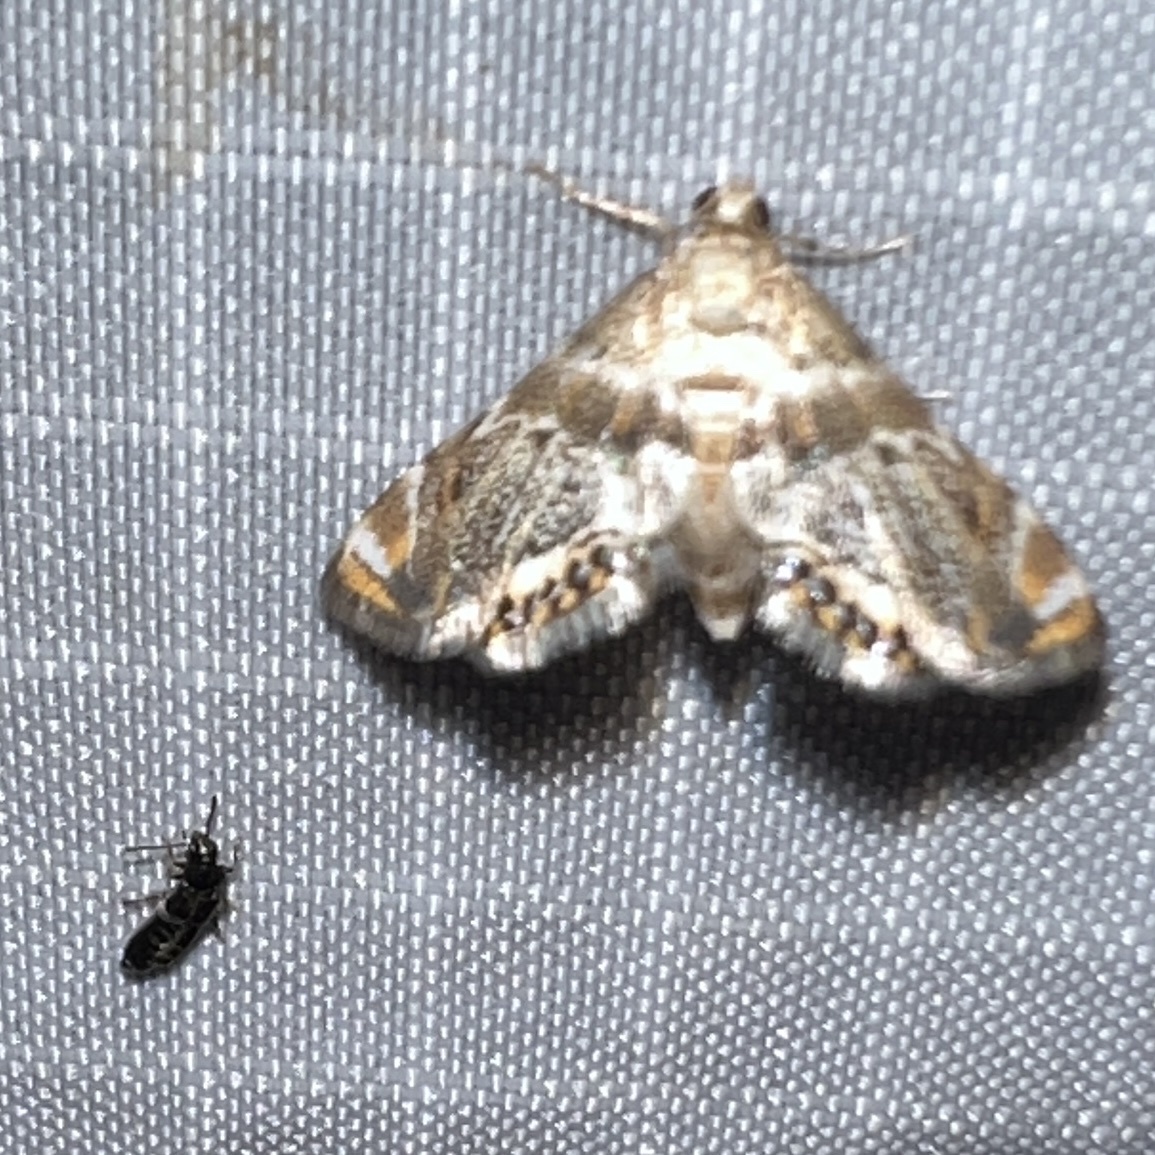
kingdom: Animalia
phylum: Arthropoda
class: Insecta
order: Lepidoptera
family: Crambidae
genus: Petrophila
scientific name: Petrophila fulicalis
